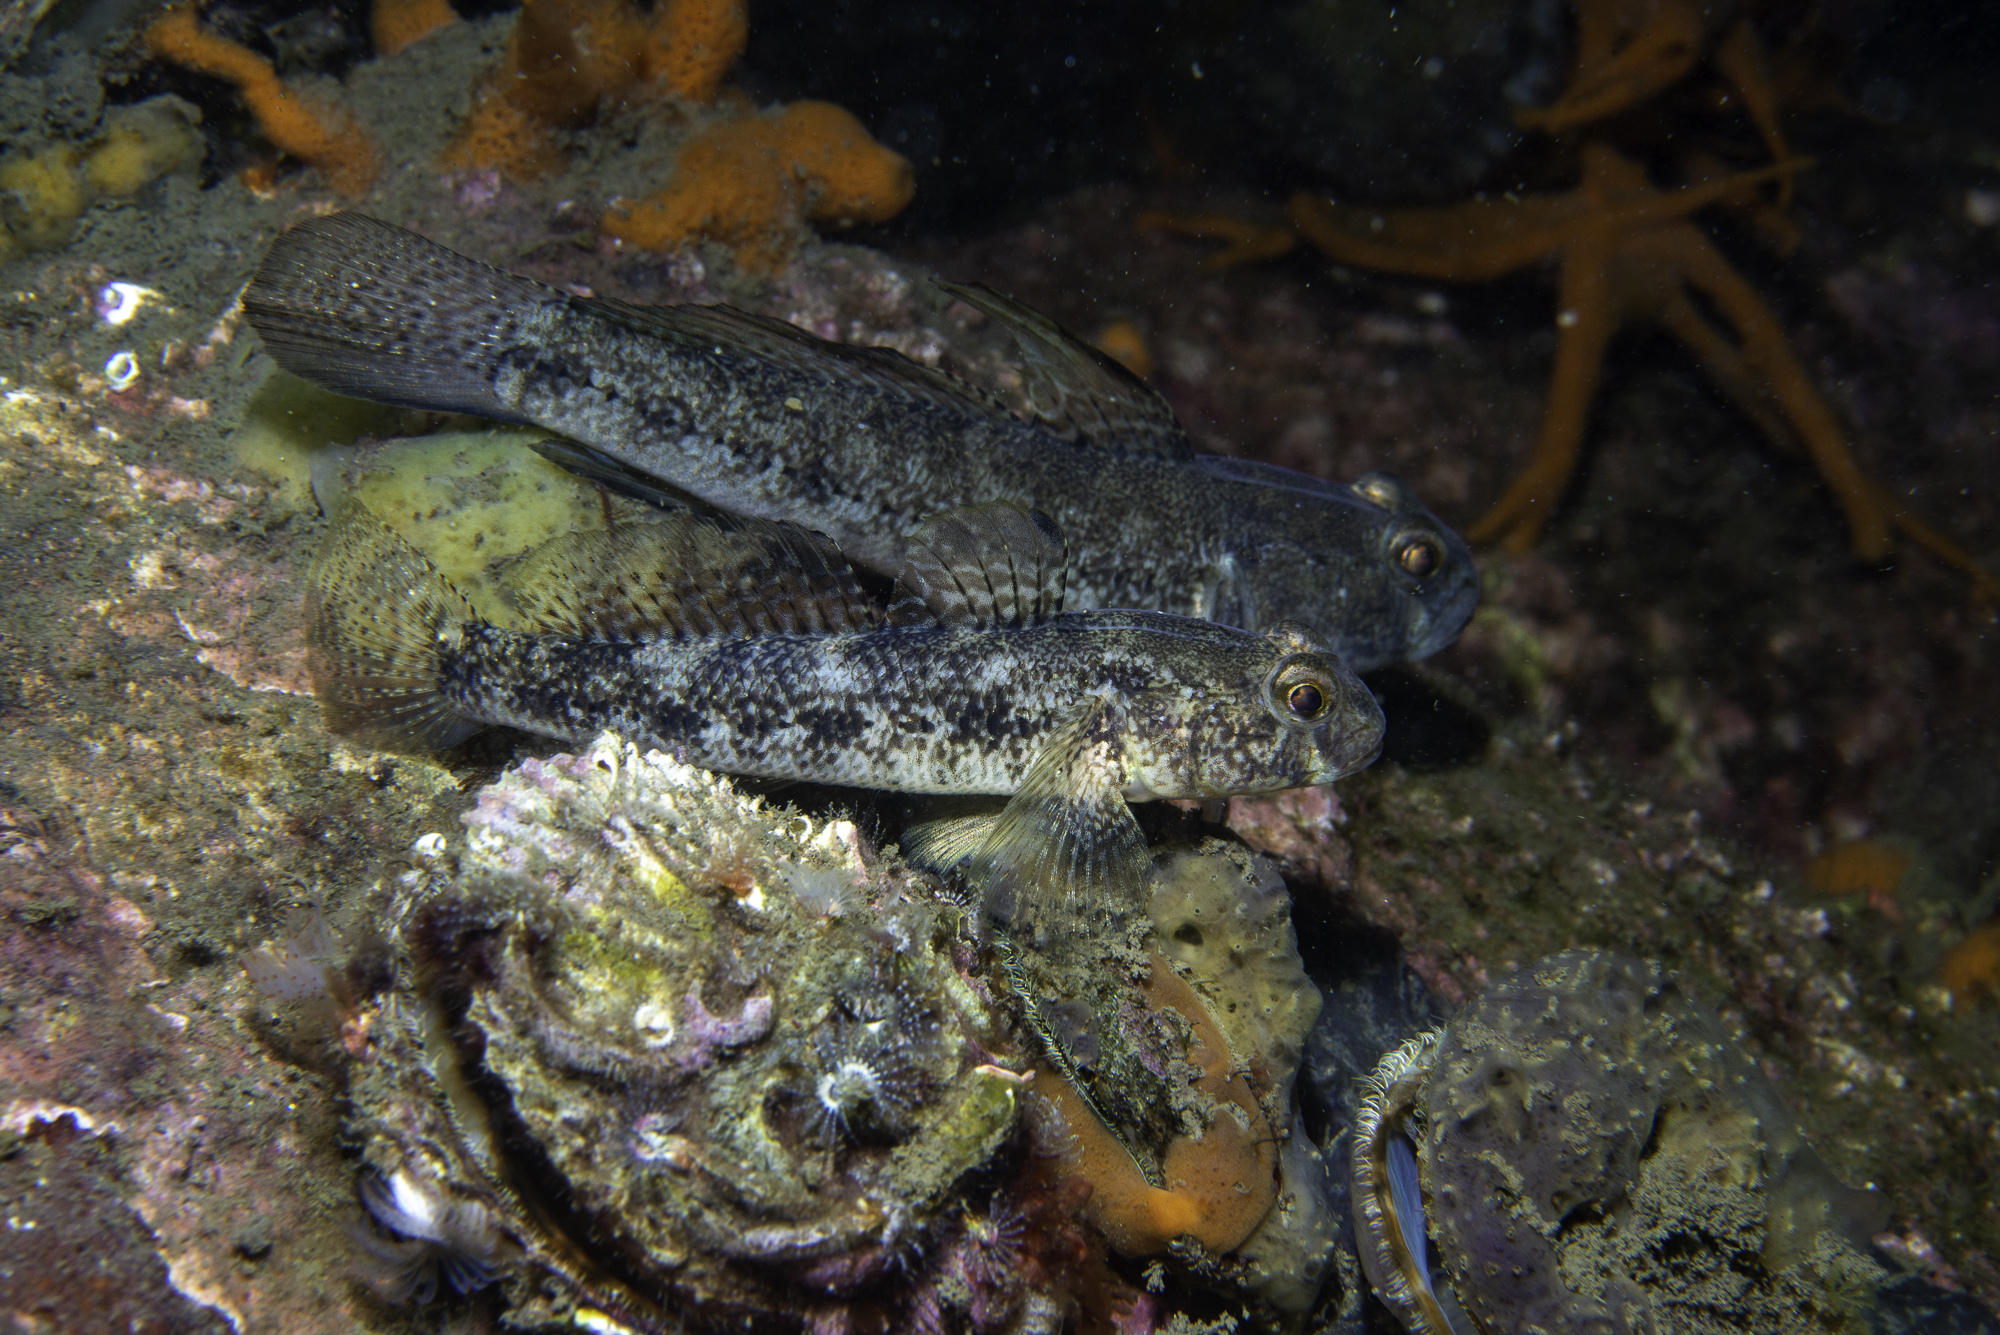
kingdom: Animalia
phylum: Chordata
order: Perciformes
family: Gobiidae
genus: Gobius
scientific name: Gobius niger
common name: Black goby
